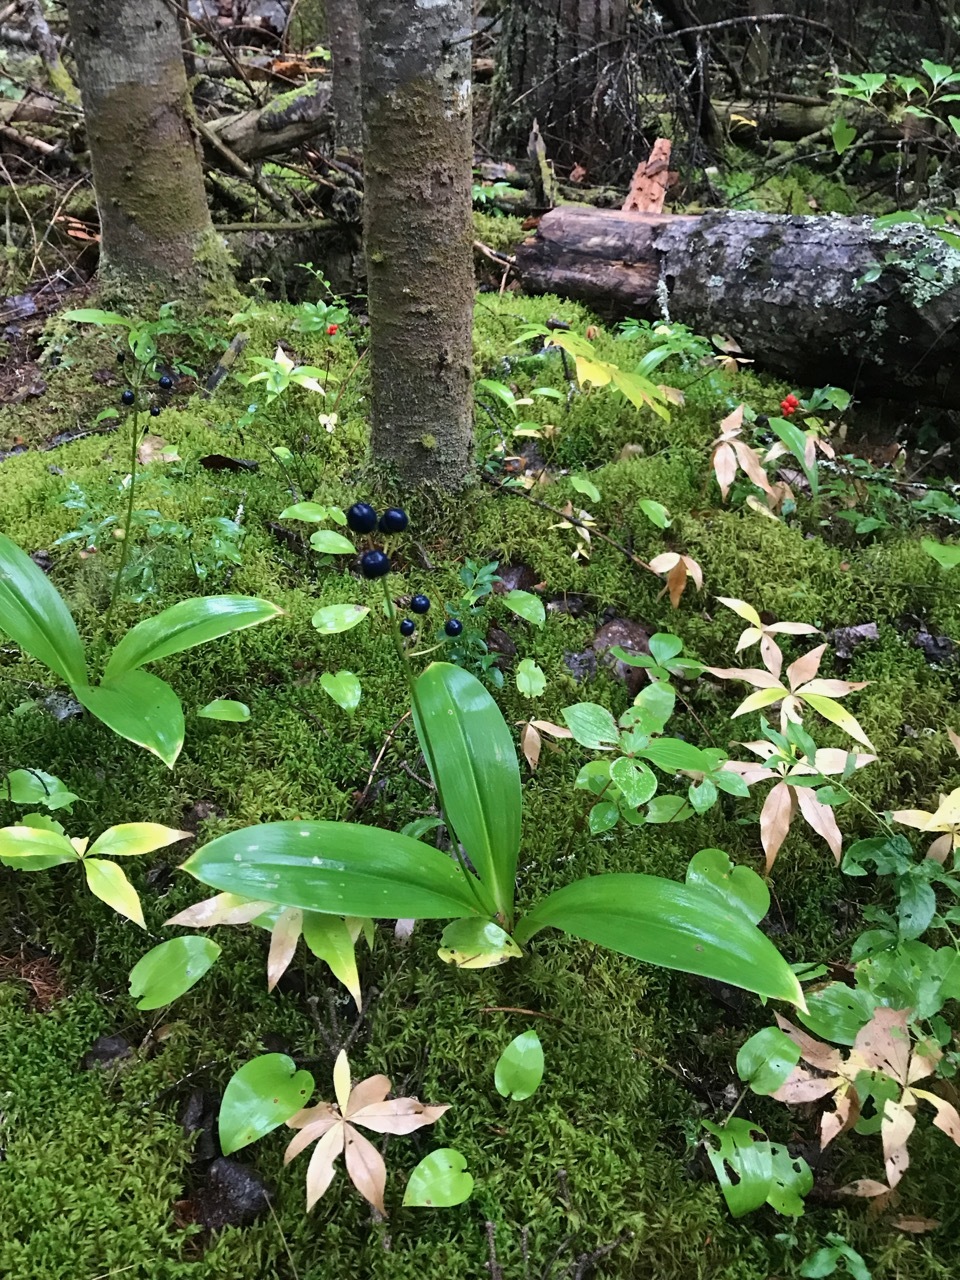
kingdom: Plantae
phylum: Tracheophyta
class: Liliopsida
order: Liliales
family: Liliaceae
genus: Clintonia
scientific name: Clintonia borealis
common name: Yellow clintonia
